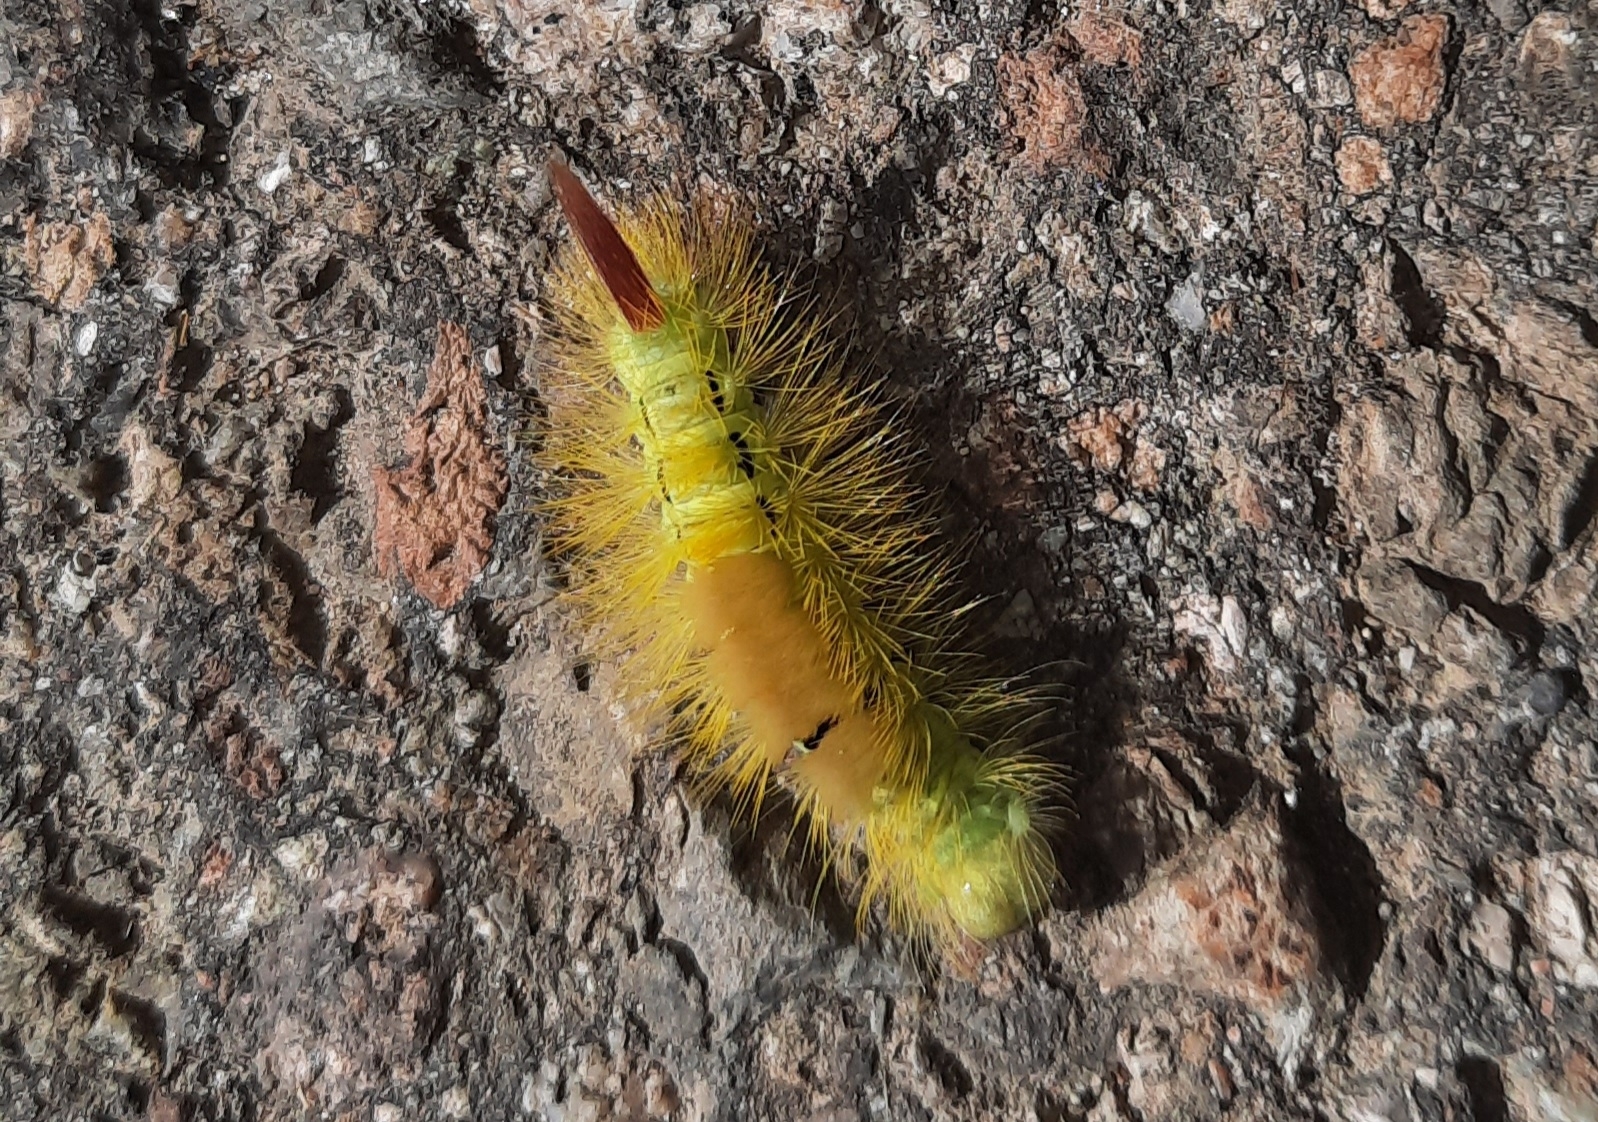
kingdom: Animalia
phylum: Arthropoda
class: Insecta
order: Lepidoptera
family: Erebidae
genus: Calliteara
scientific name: Calliteara pudibunda
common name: Pale tussock
